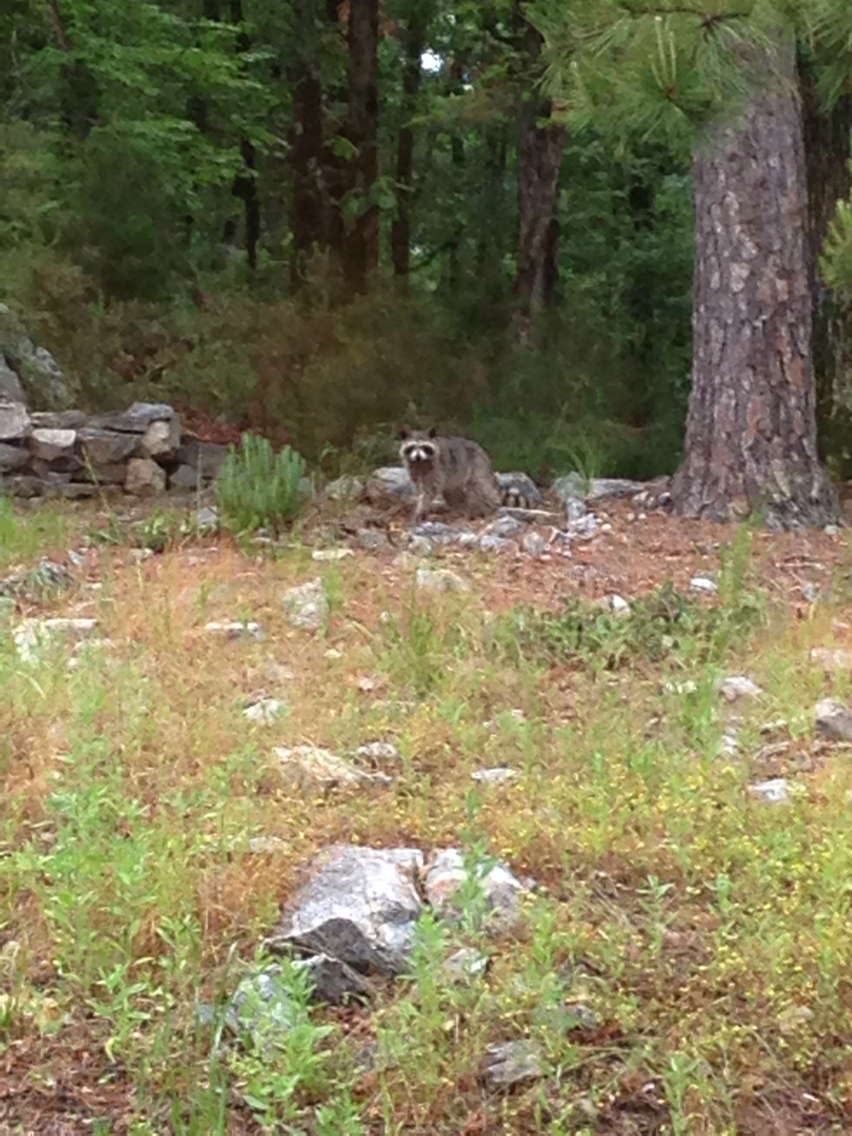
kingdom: Animalia
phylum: Chordata
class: Mammalia
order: Carnivora
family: Procyonidae
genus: Procyon
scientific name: Procyon lotor
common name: Raccoon
